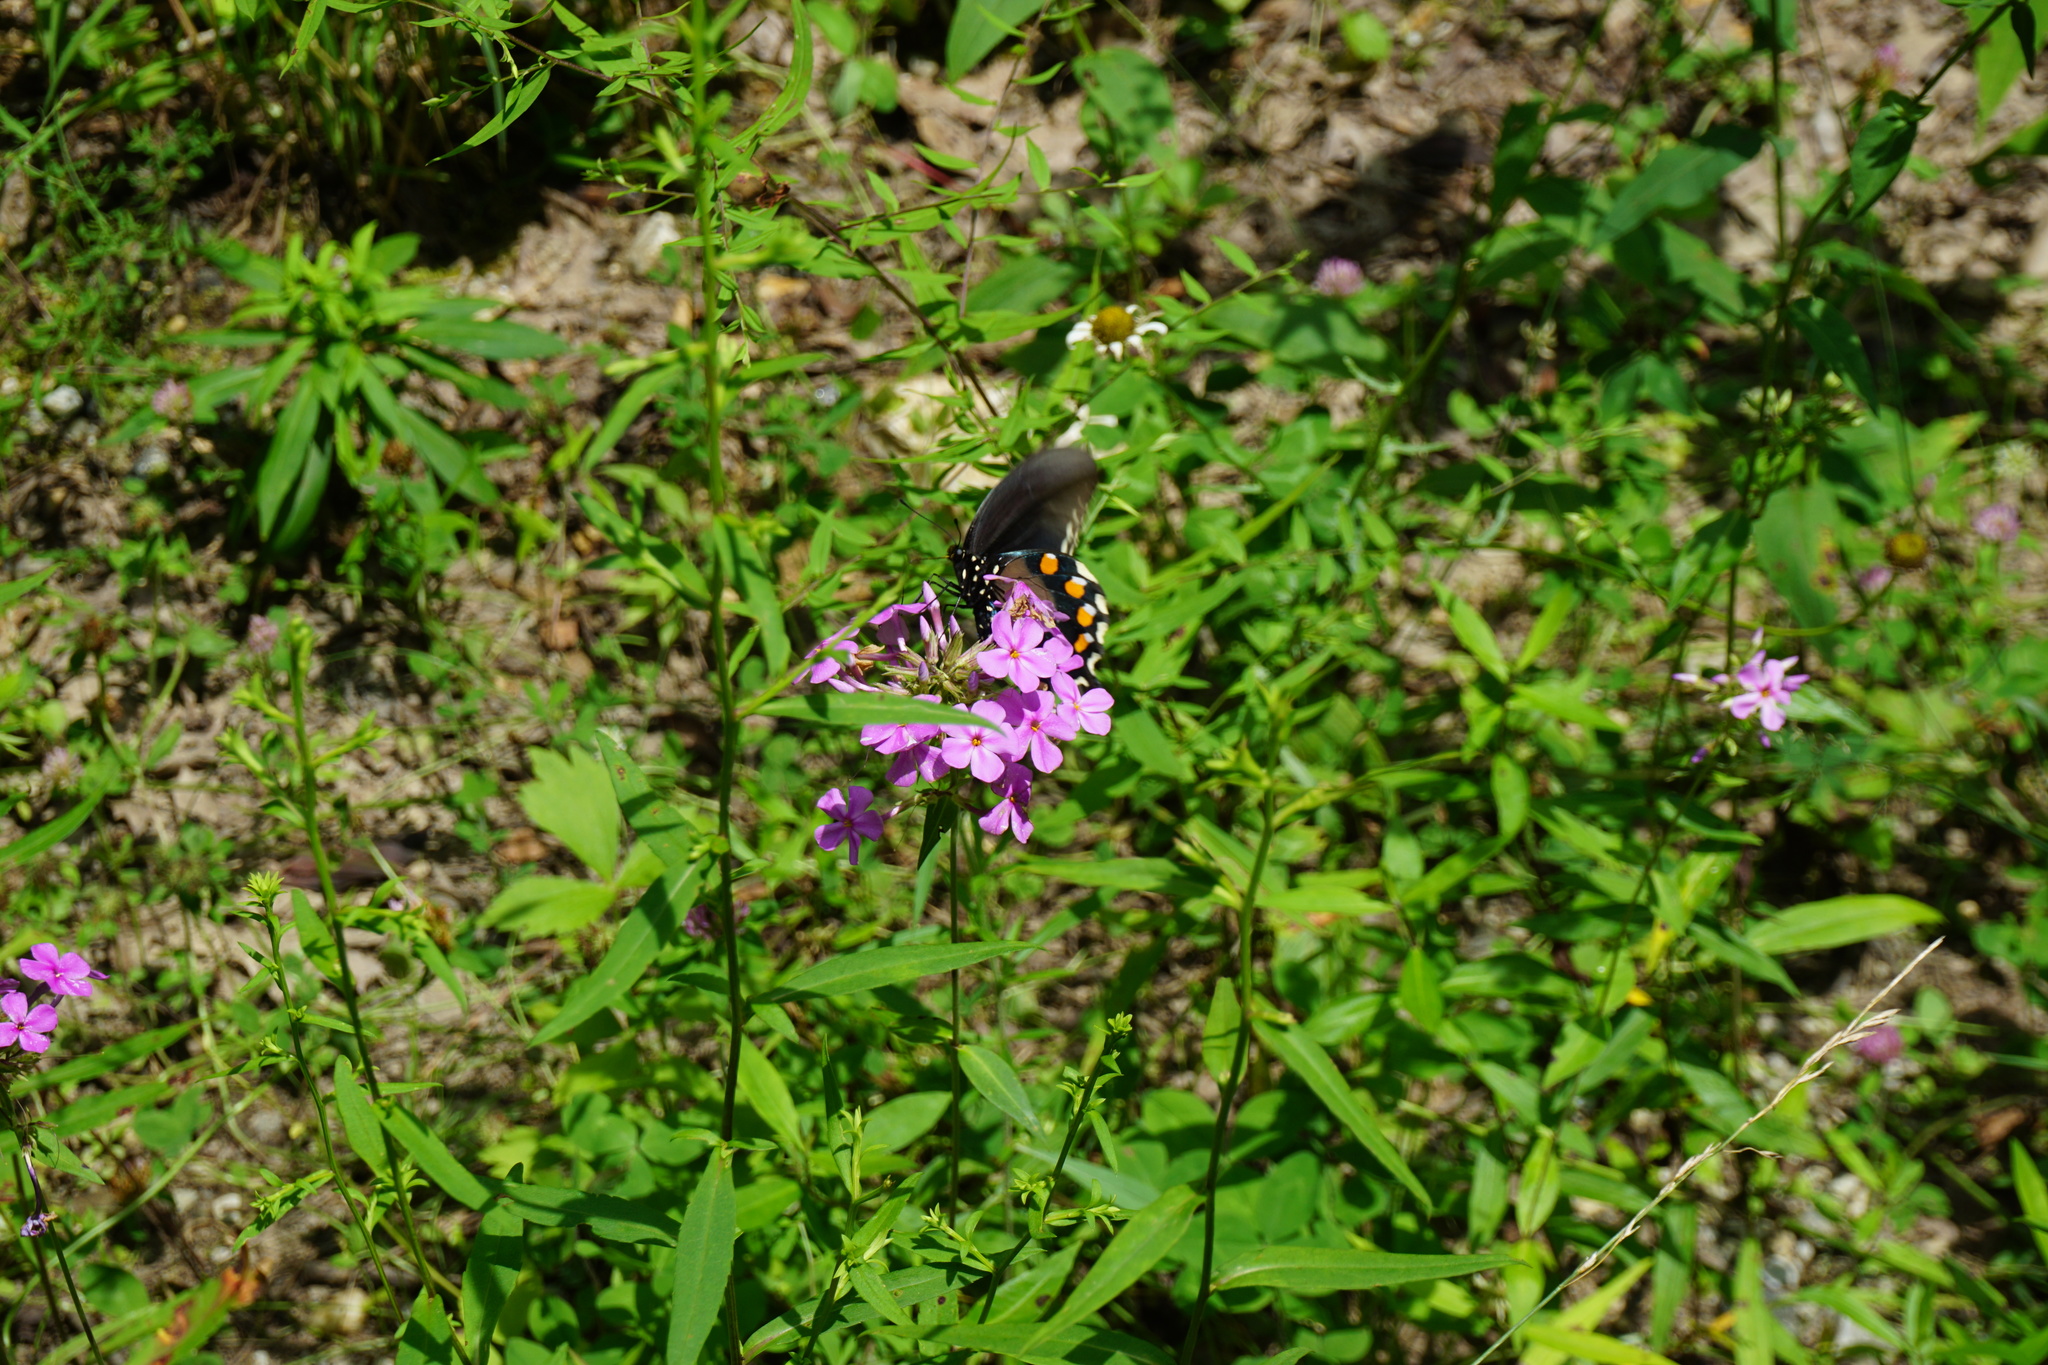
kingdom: Animalia
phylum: Arthropoda
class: Insecta
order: Lepidoptera
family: Papilionidae
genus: Battus
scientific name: Battus philenor
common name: Pipevine swallowtail
